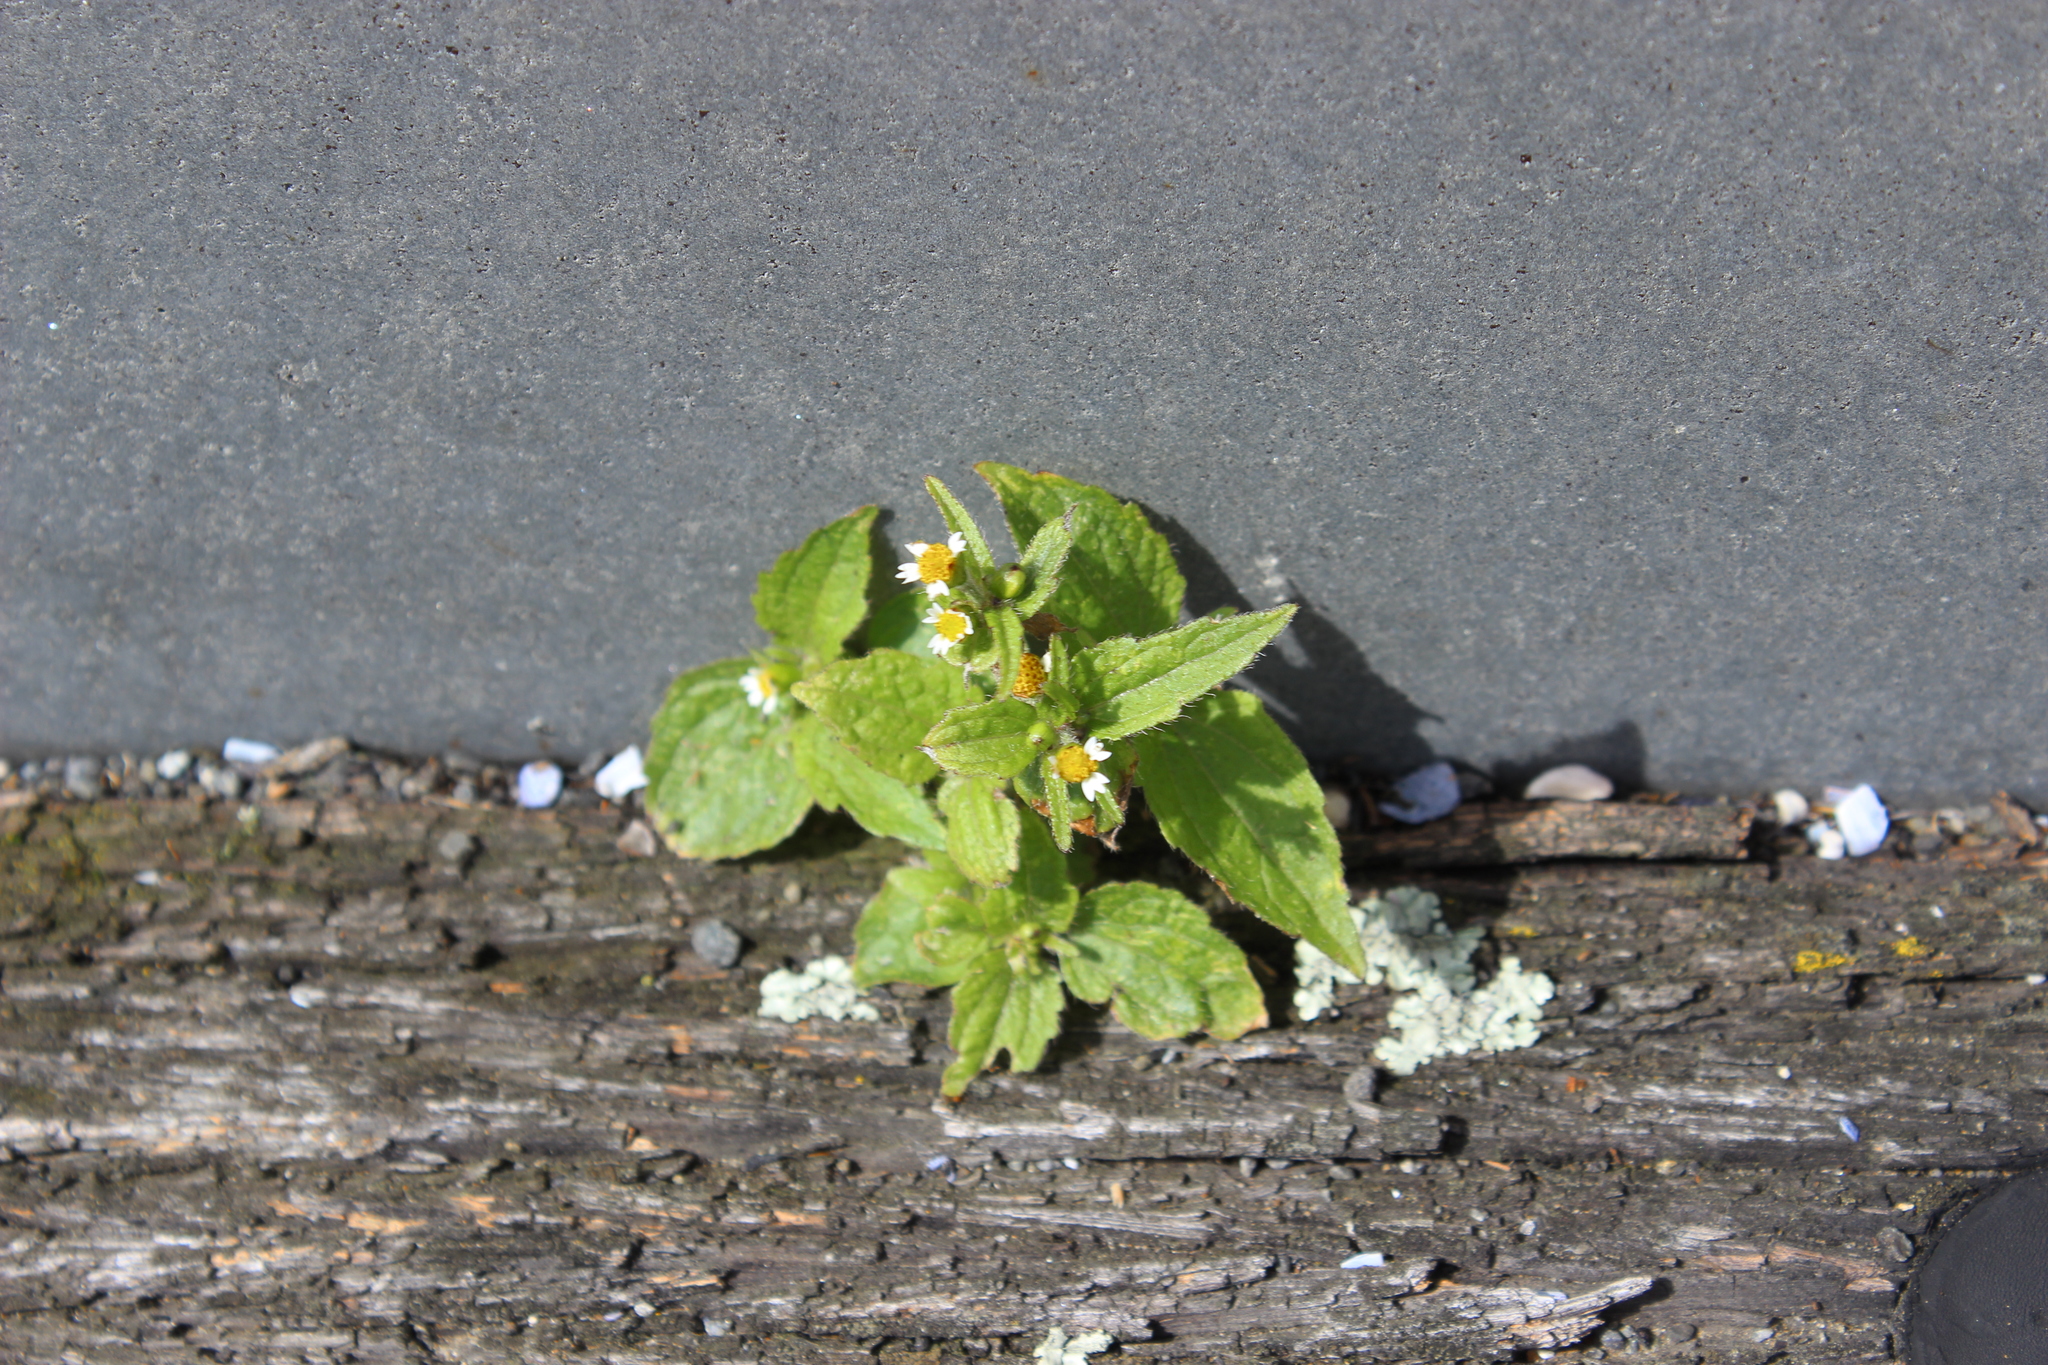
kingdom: Plantae
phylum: Tracheophyta
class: Magnoliopsida
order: Asterales
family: Asteraceae
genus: Galinsoga
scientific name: Galinsoga quadriradiata
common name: Shaggy soldier
